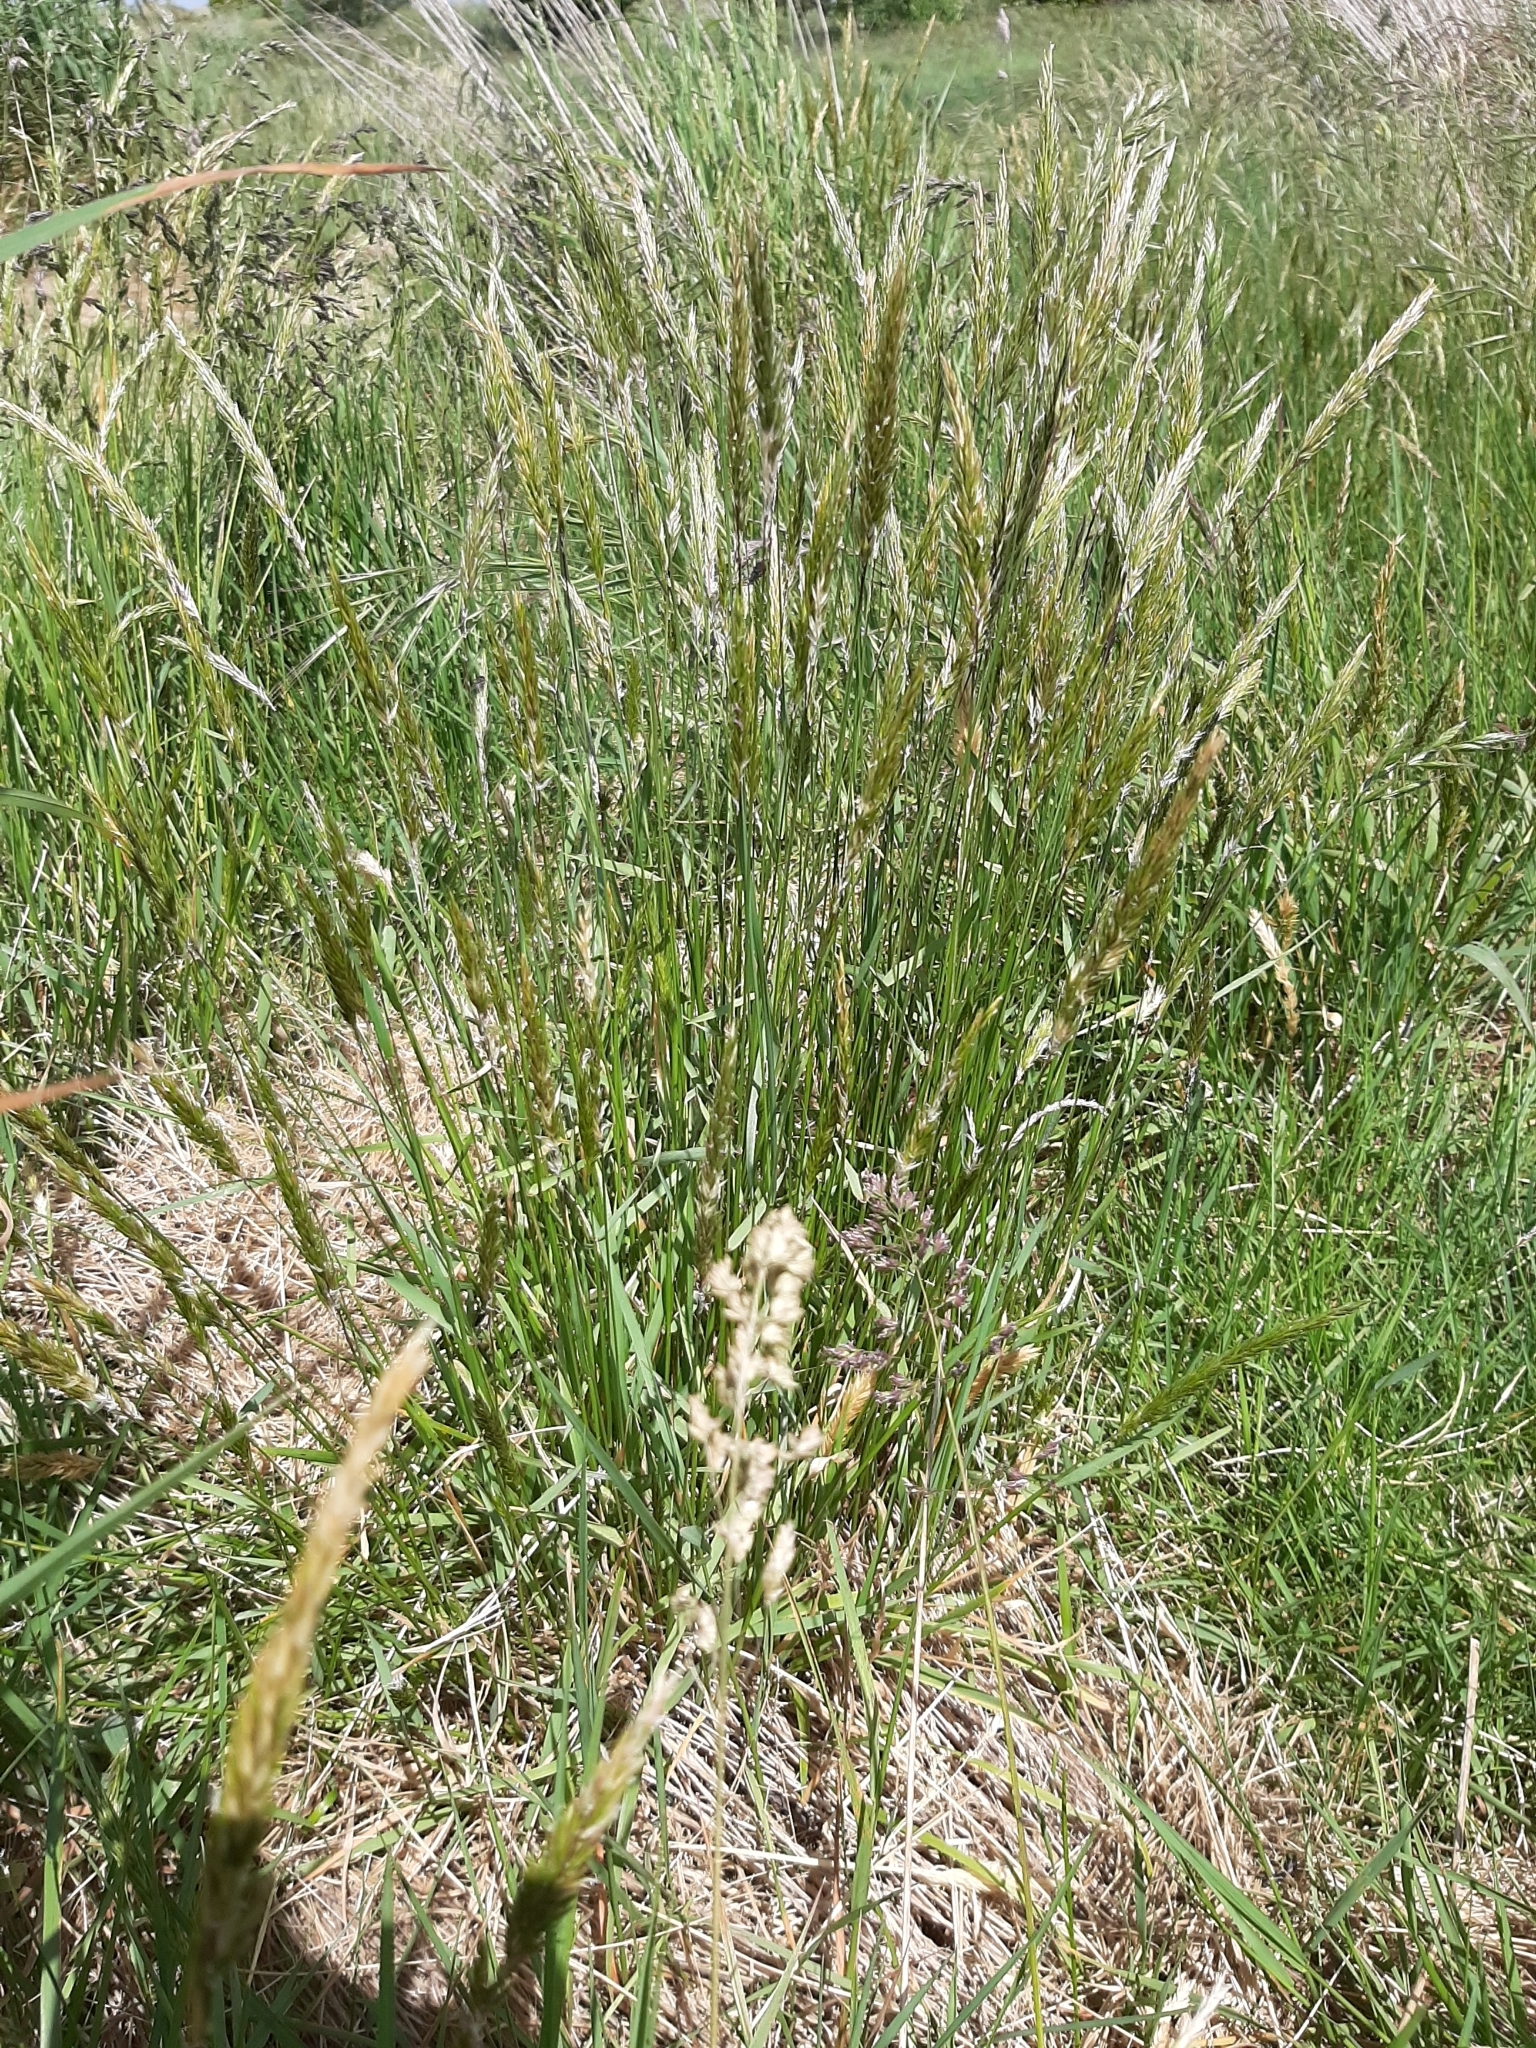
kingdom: Plantae
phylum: Tracheophyta
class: Liliopsida
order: Poales
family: Poaceae
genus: Anthoxanthum
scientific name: Anthoxanthum odoratum
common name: Sweet vernalgrass
